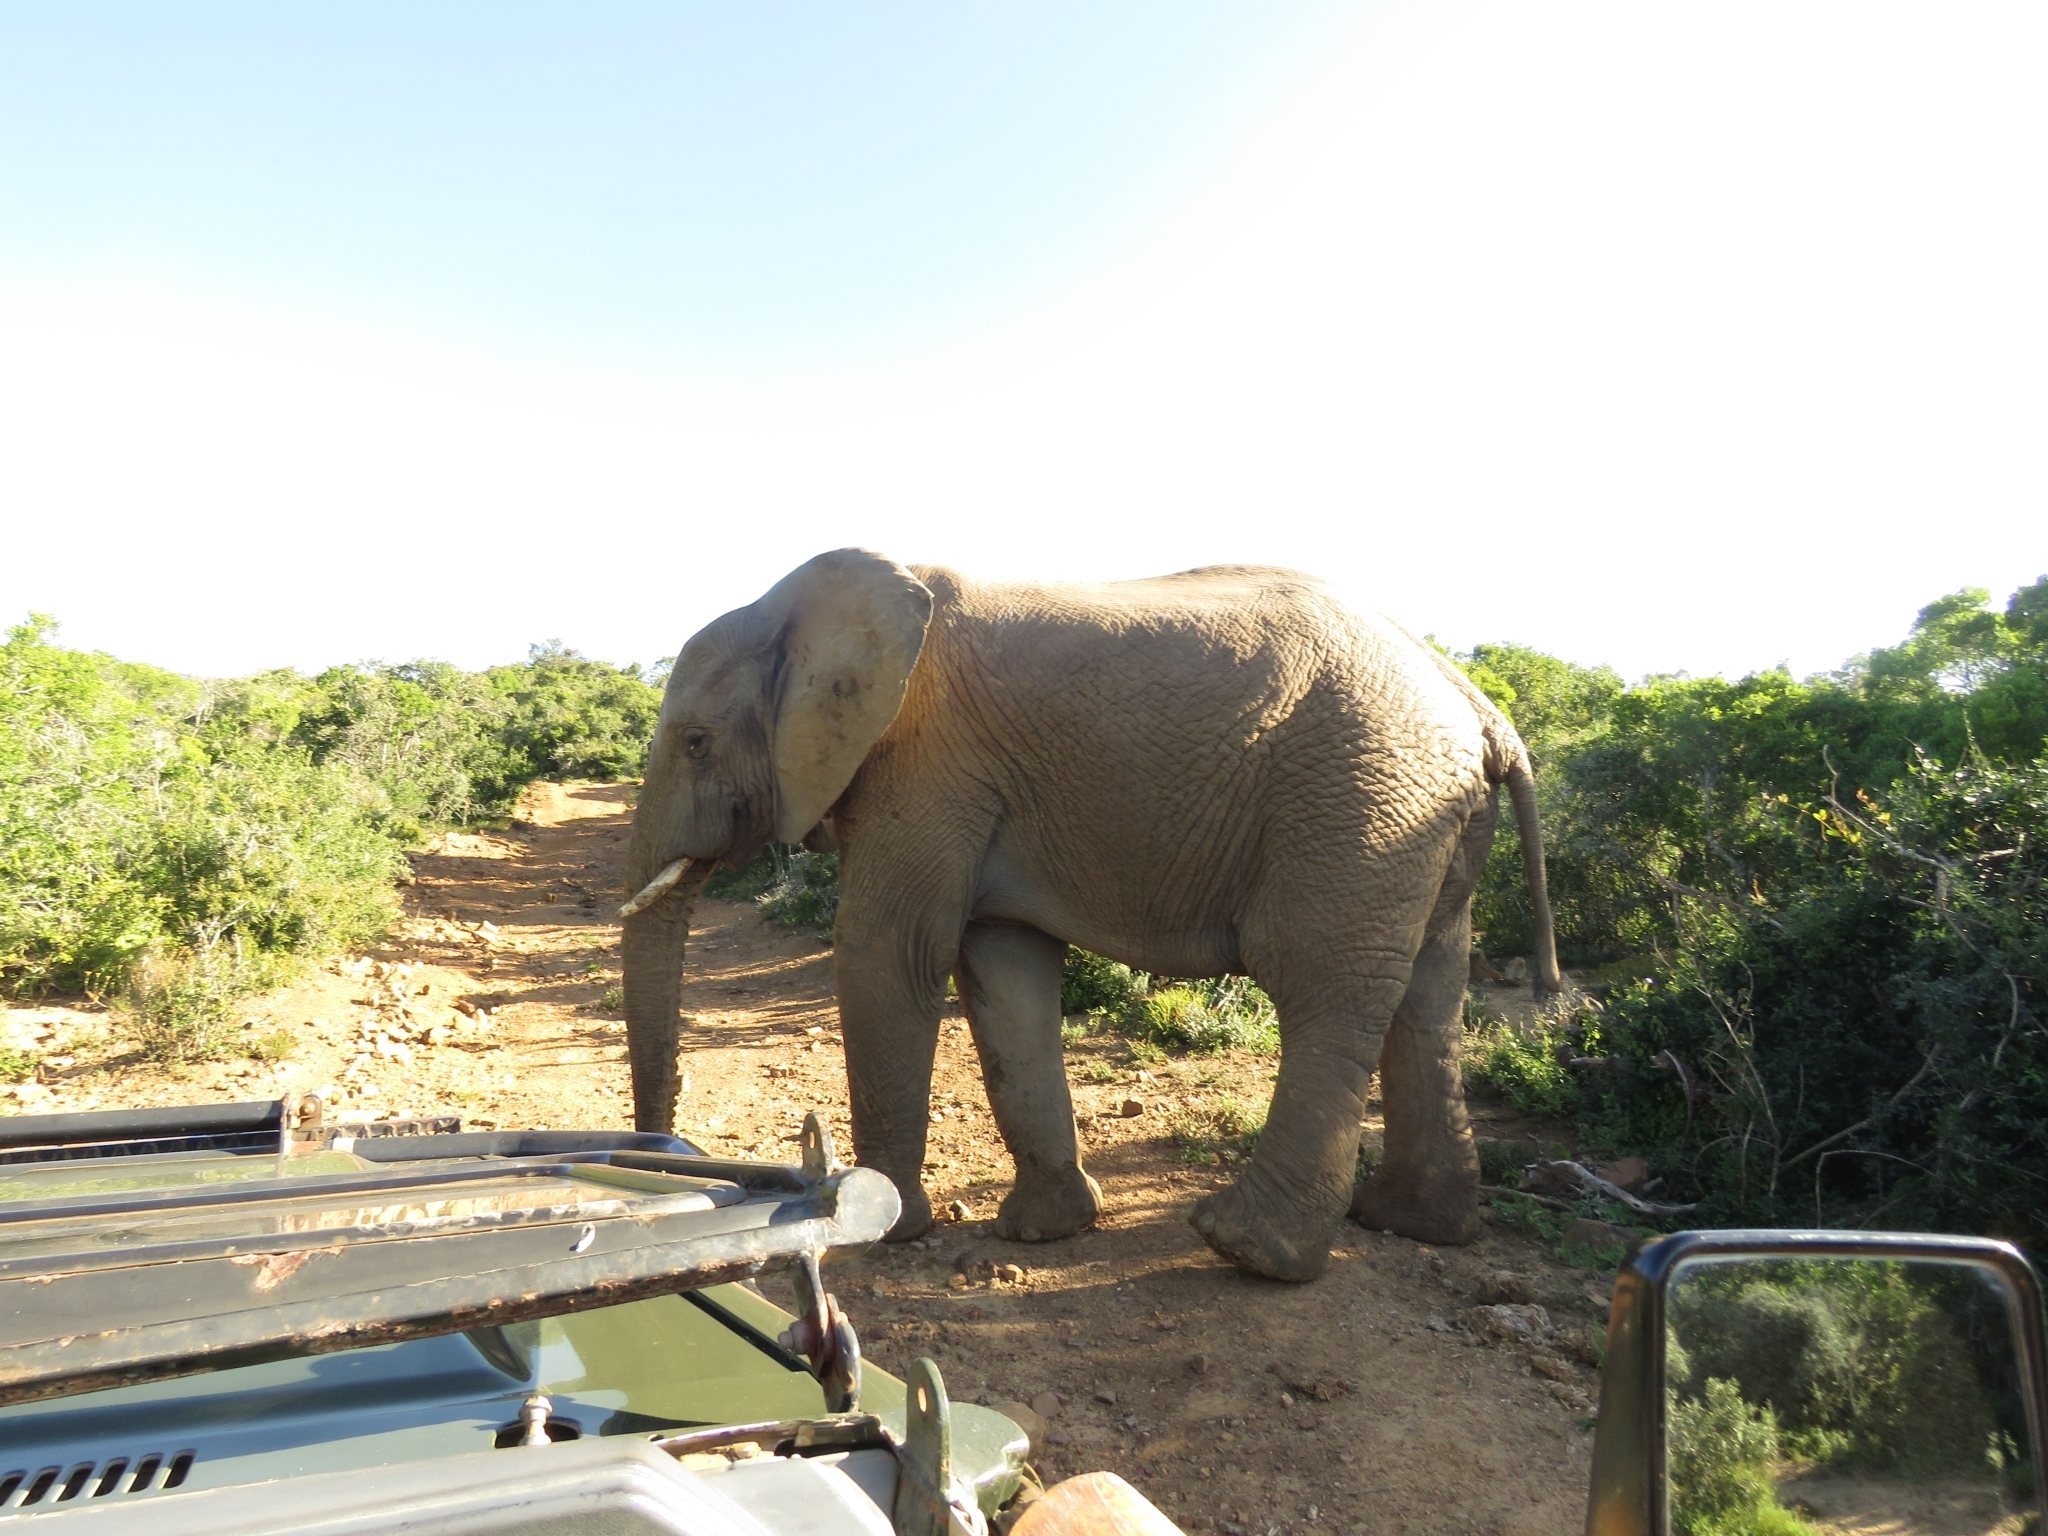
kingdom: Animalia
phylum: Chordata
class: Mammalia
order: Proboscidea
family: Elephantidae
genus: Loxodonta
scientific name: Loxodonta africana
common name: African elephant
